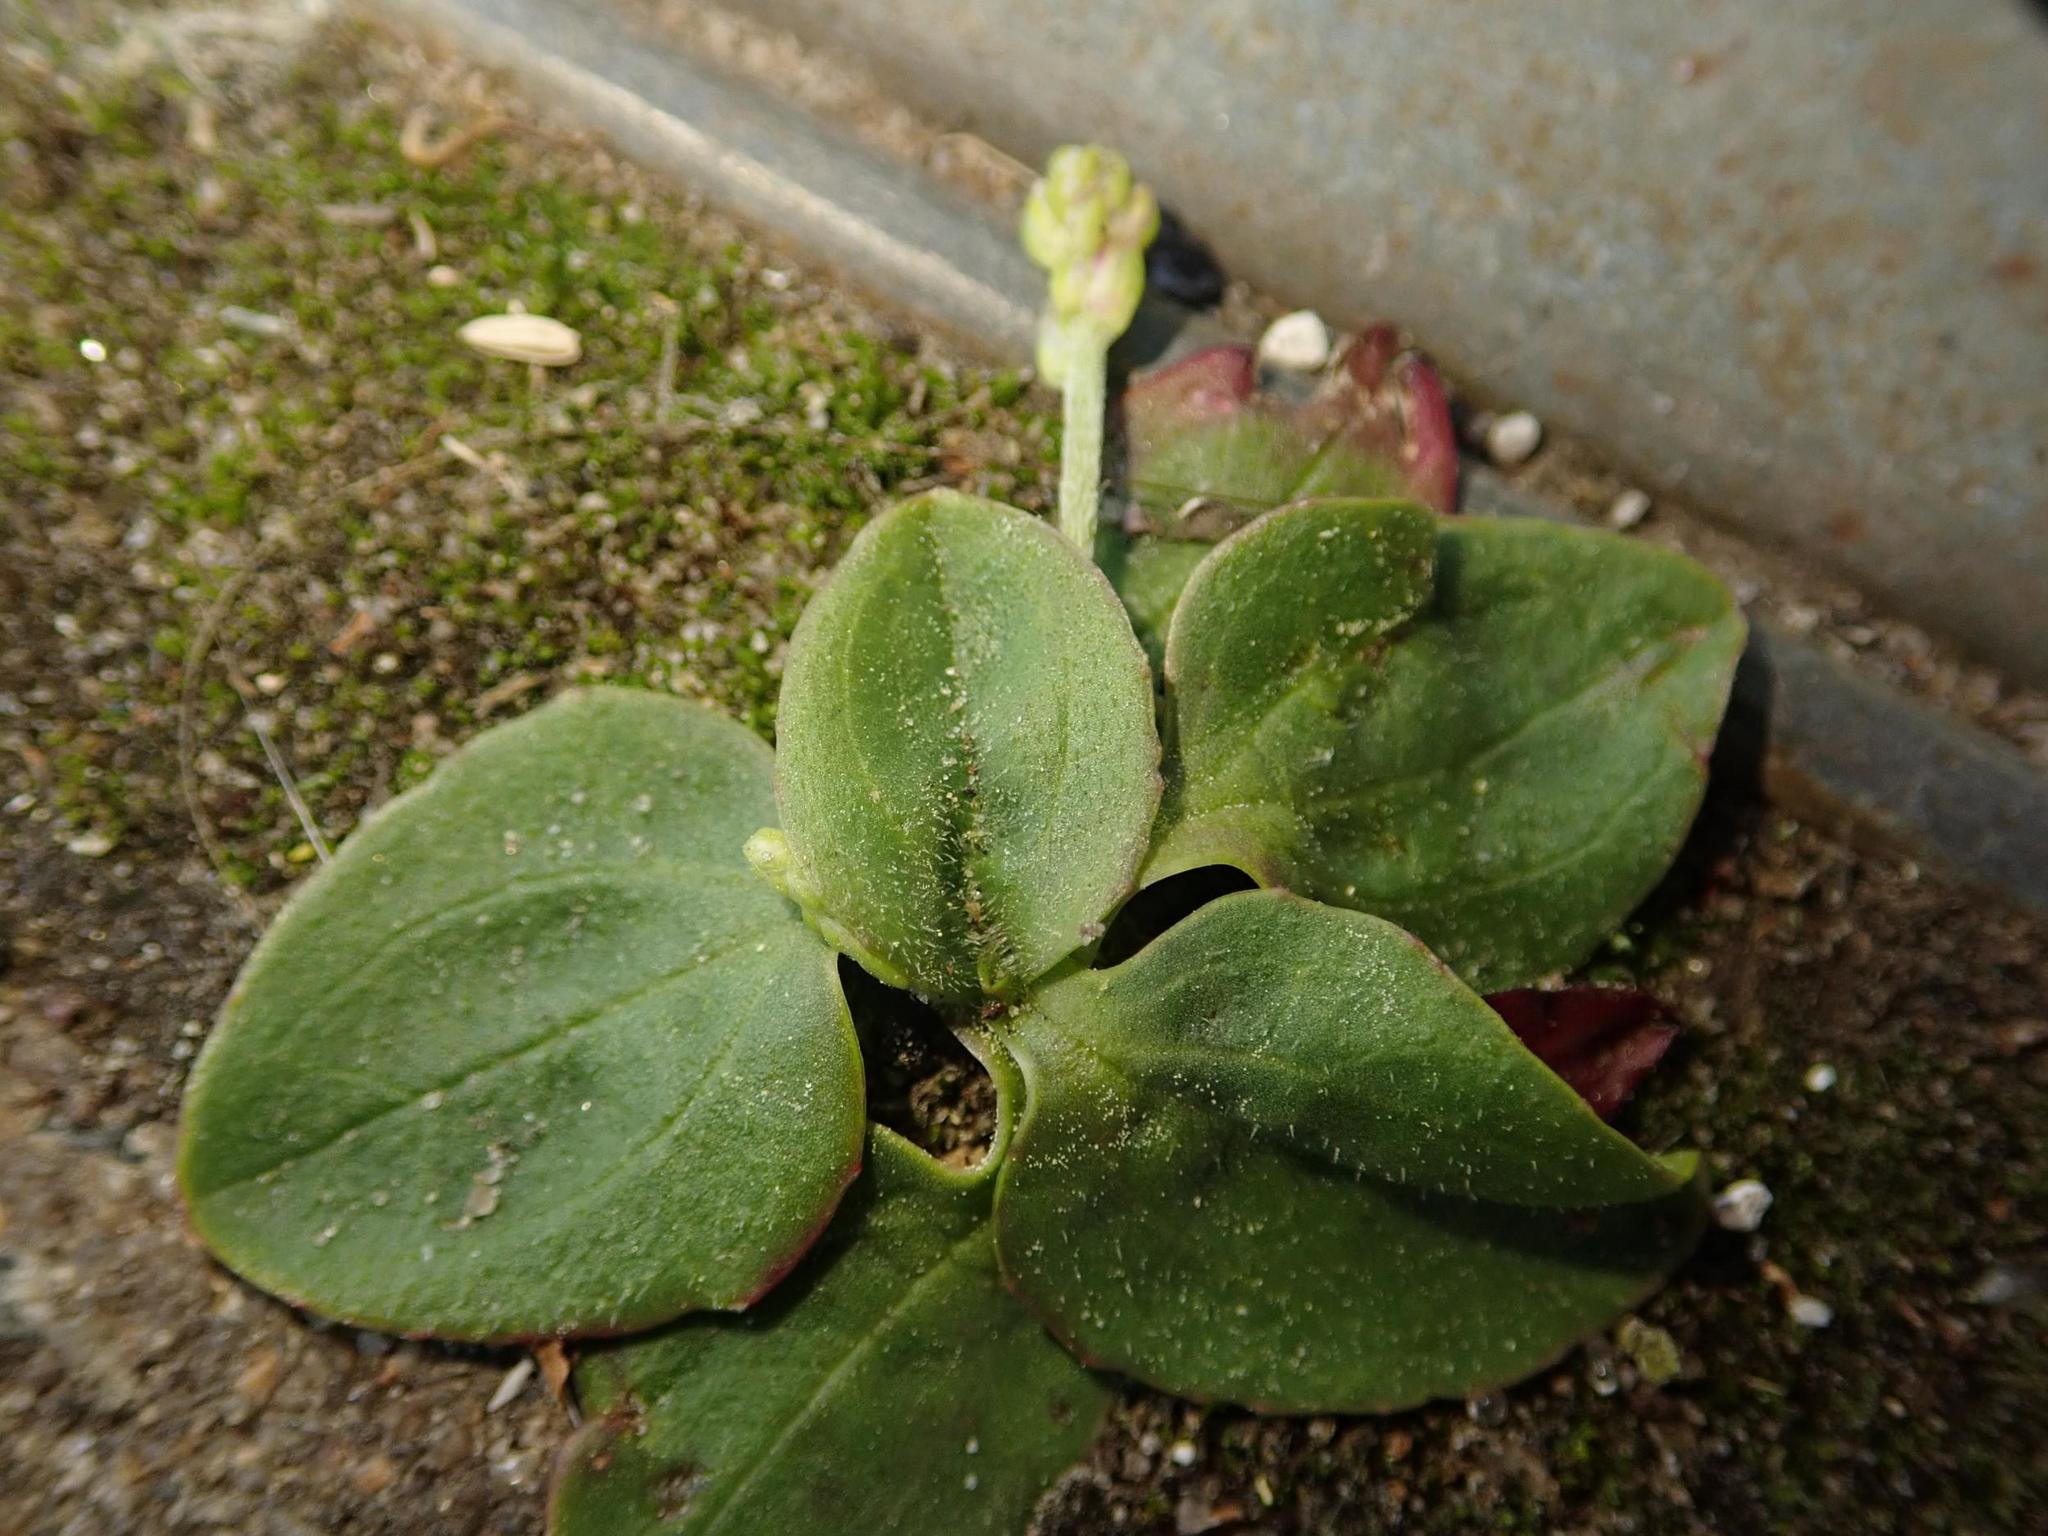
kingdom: Plantae
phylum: Tracheophyta
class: Magnoliopsida
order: Lamiales
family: Plantaginaceae
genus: Plantago
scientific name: Plantago major
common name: Common plantain
